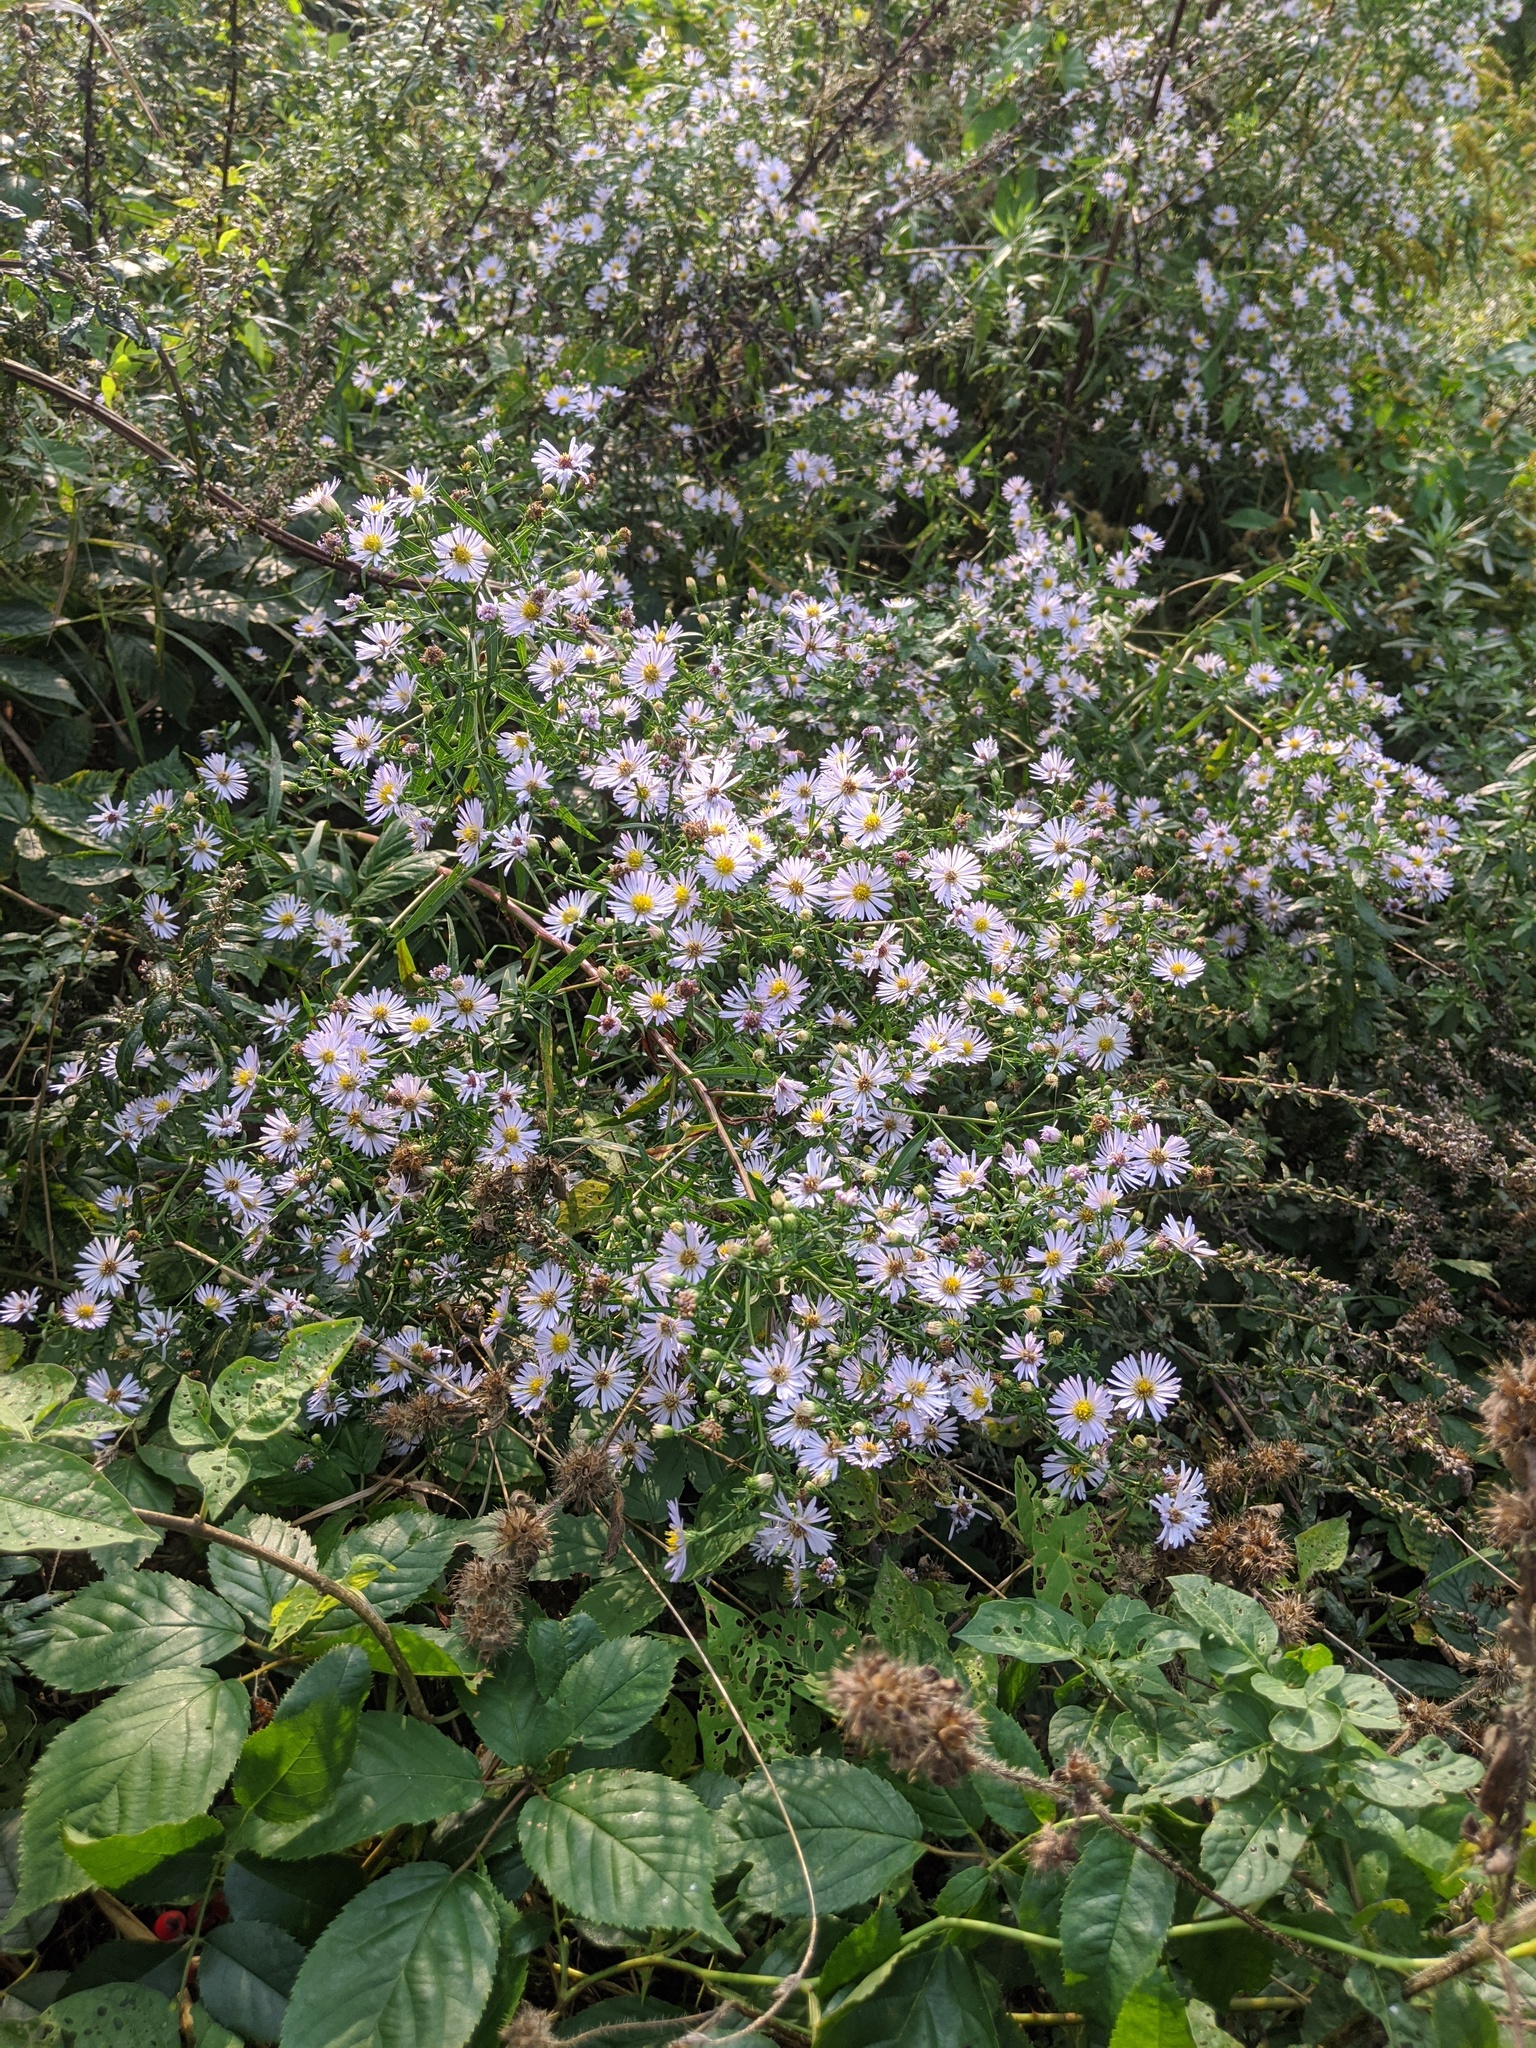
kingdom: Plantae
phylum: Tracheophyta
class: Magnoliopsida
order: Asterales
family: Asteraceae
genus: Symphyotrichum
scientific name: Symphyotrichum novi-belgii
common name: Michaelmas daisy
